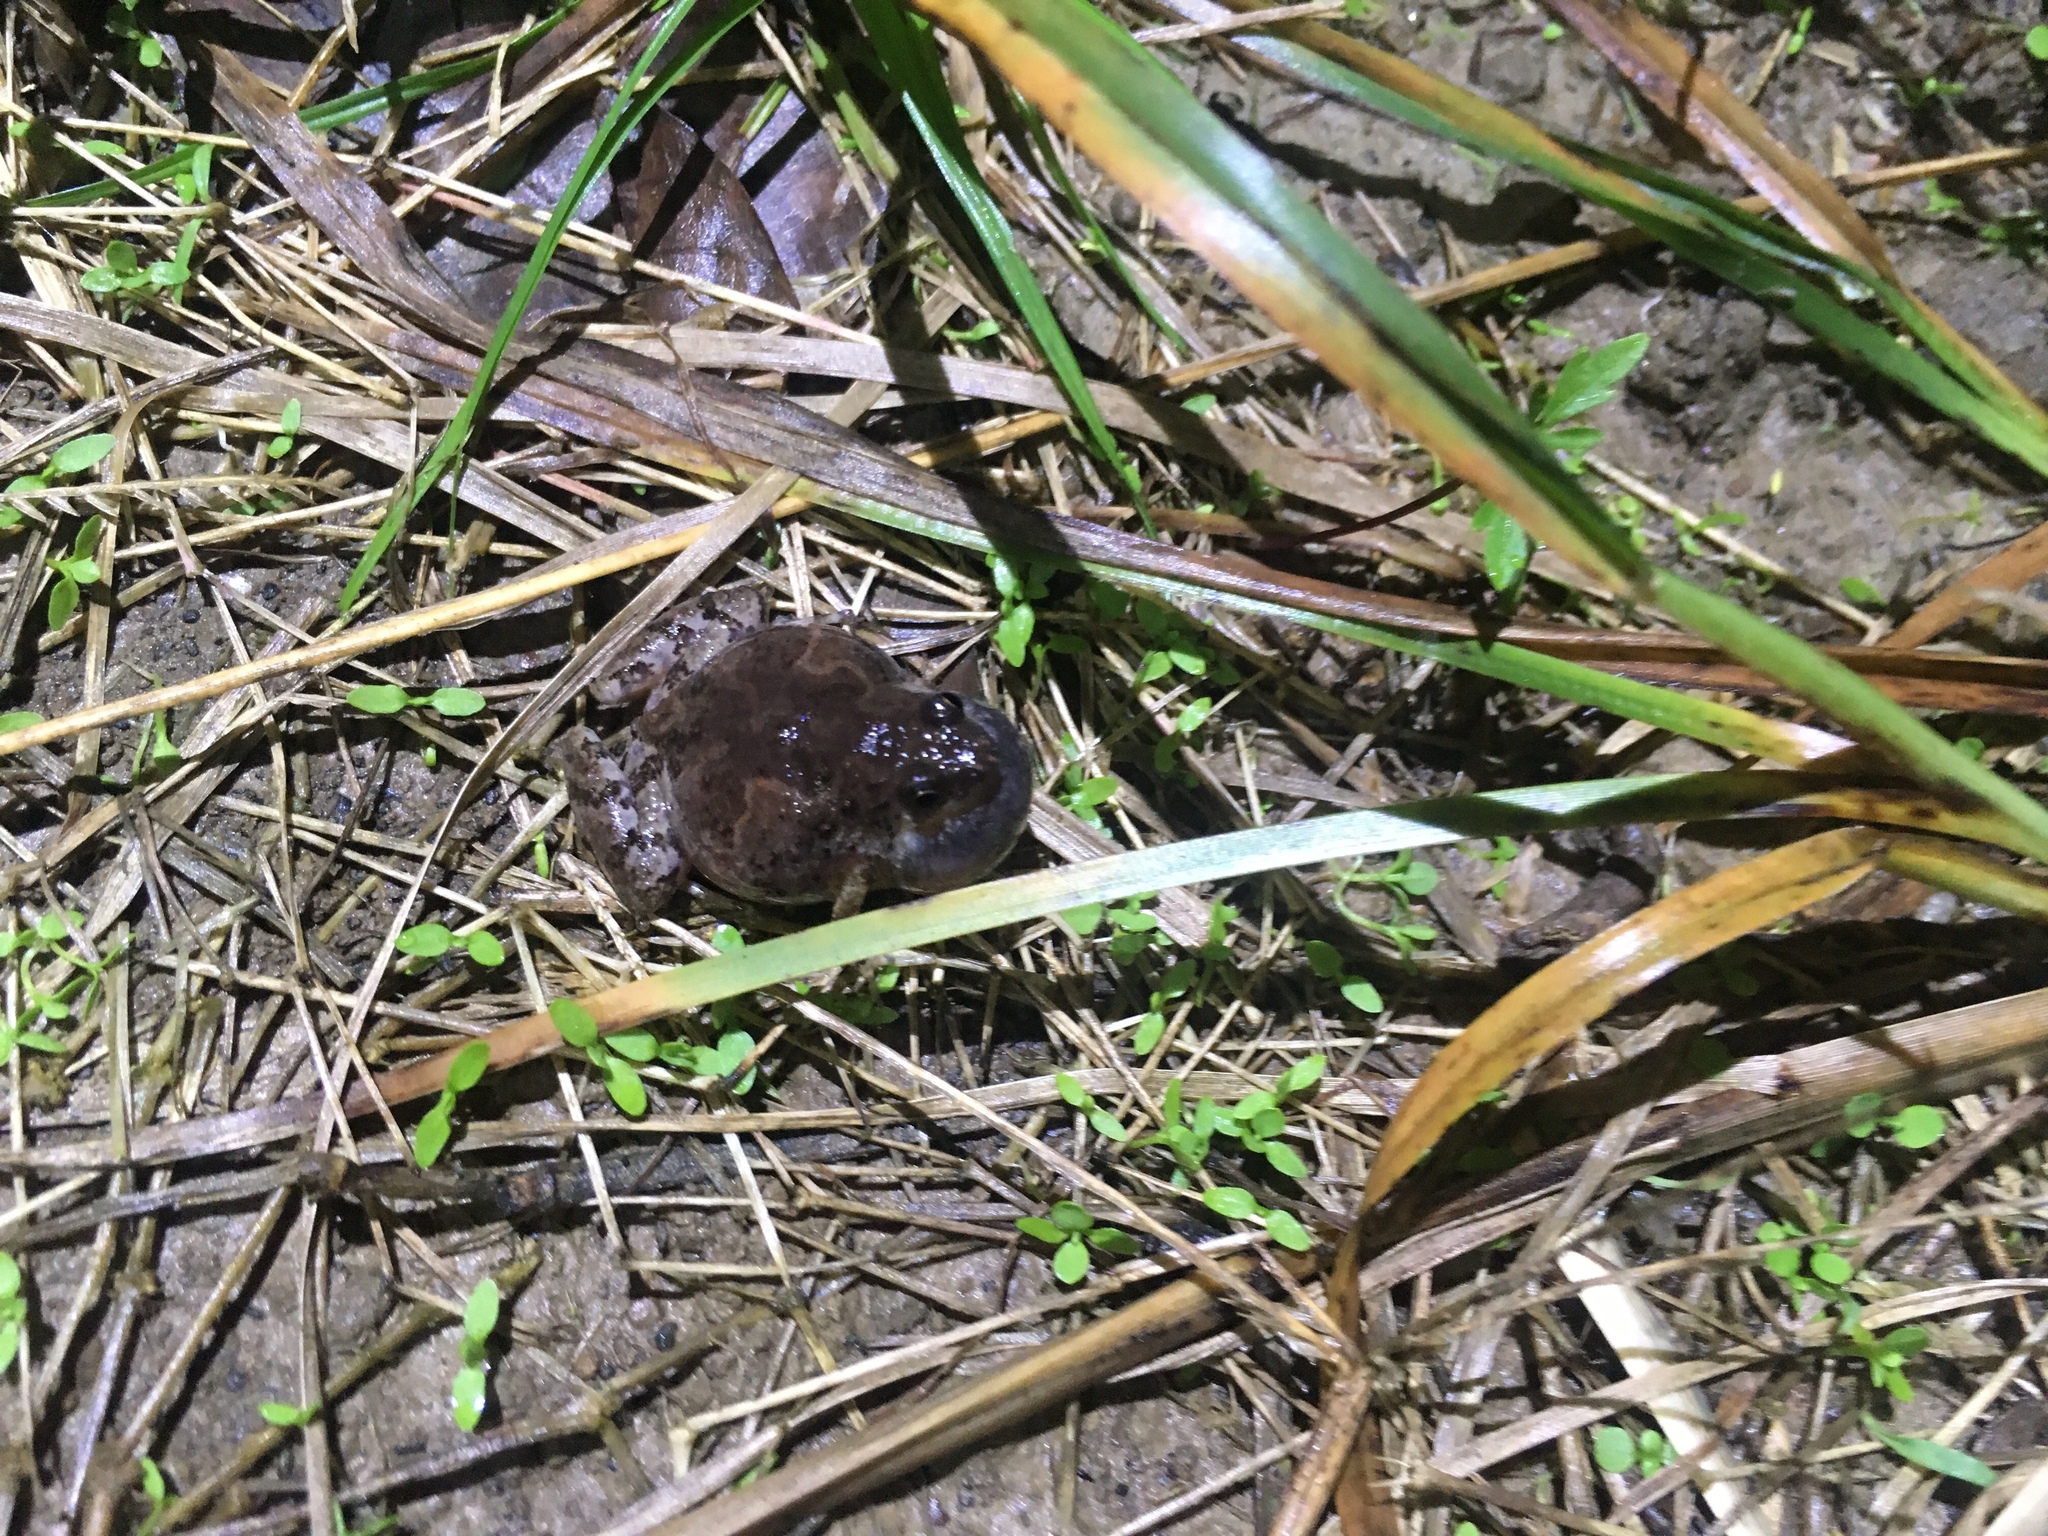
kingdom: Animalia
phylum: Chordata
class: Amphibia
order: Anura
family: Microhylidae
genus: Microhyla
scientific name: Microhyla butleri
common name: Butler’s rice frog,painted chorus frog,tubercled pygmy frog
